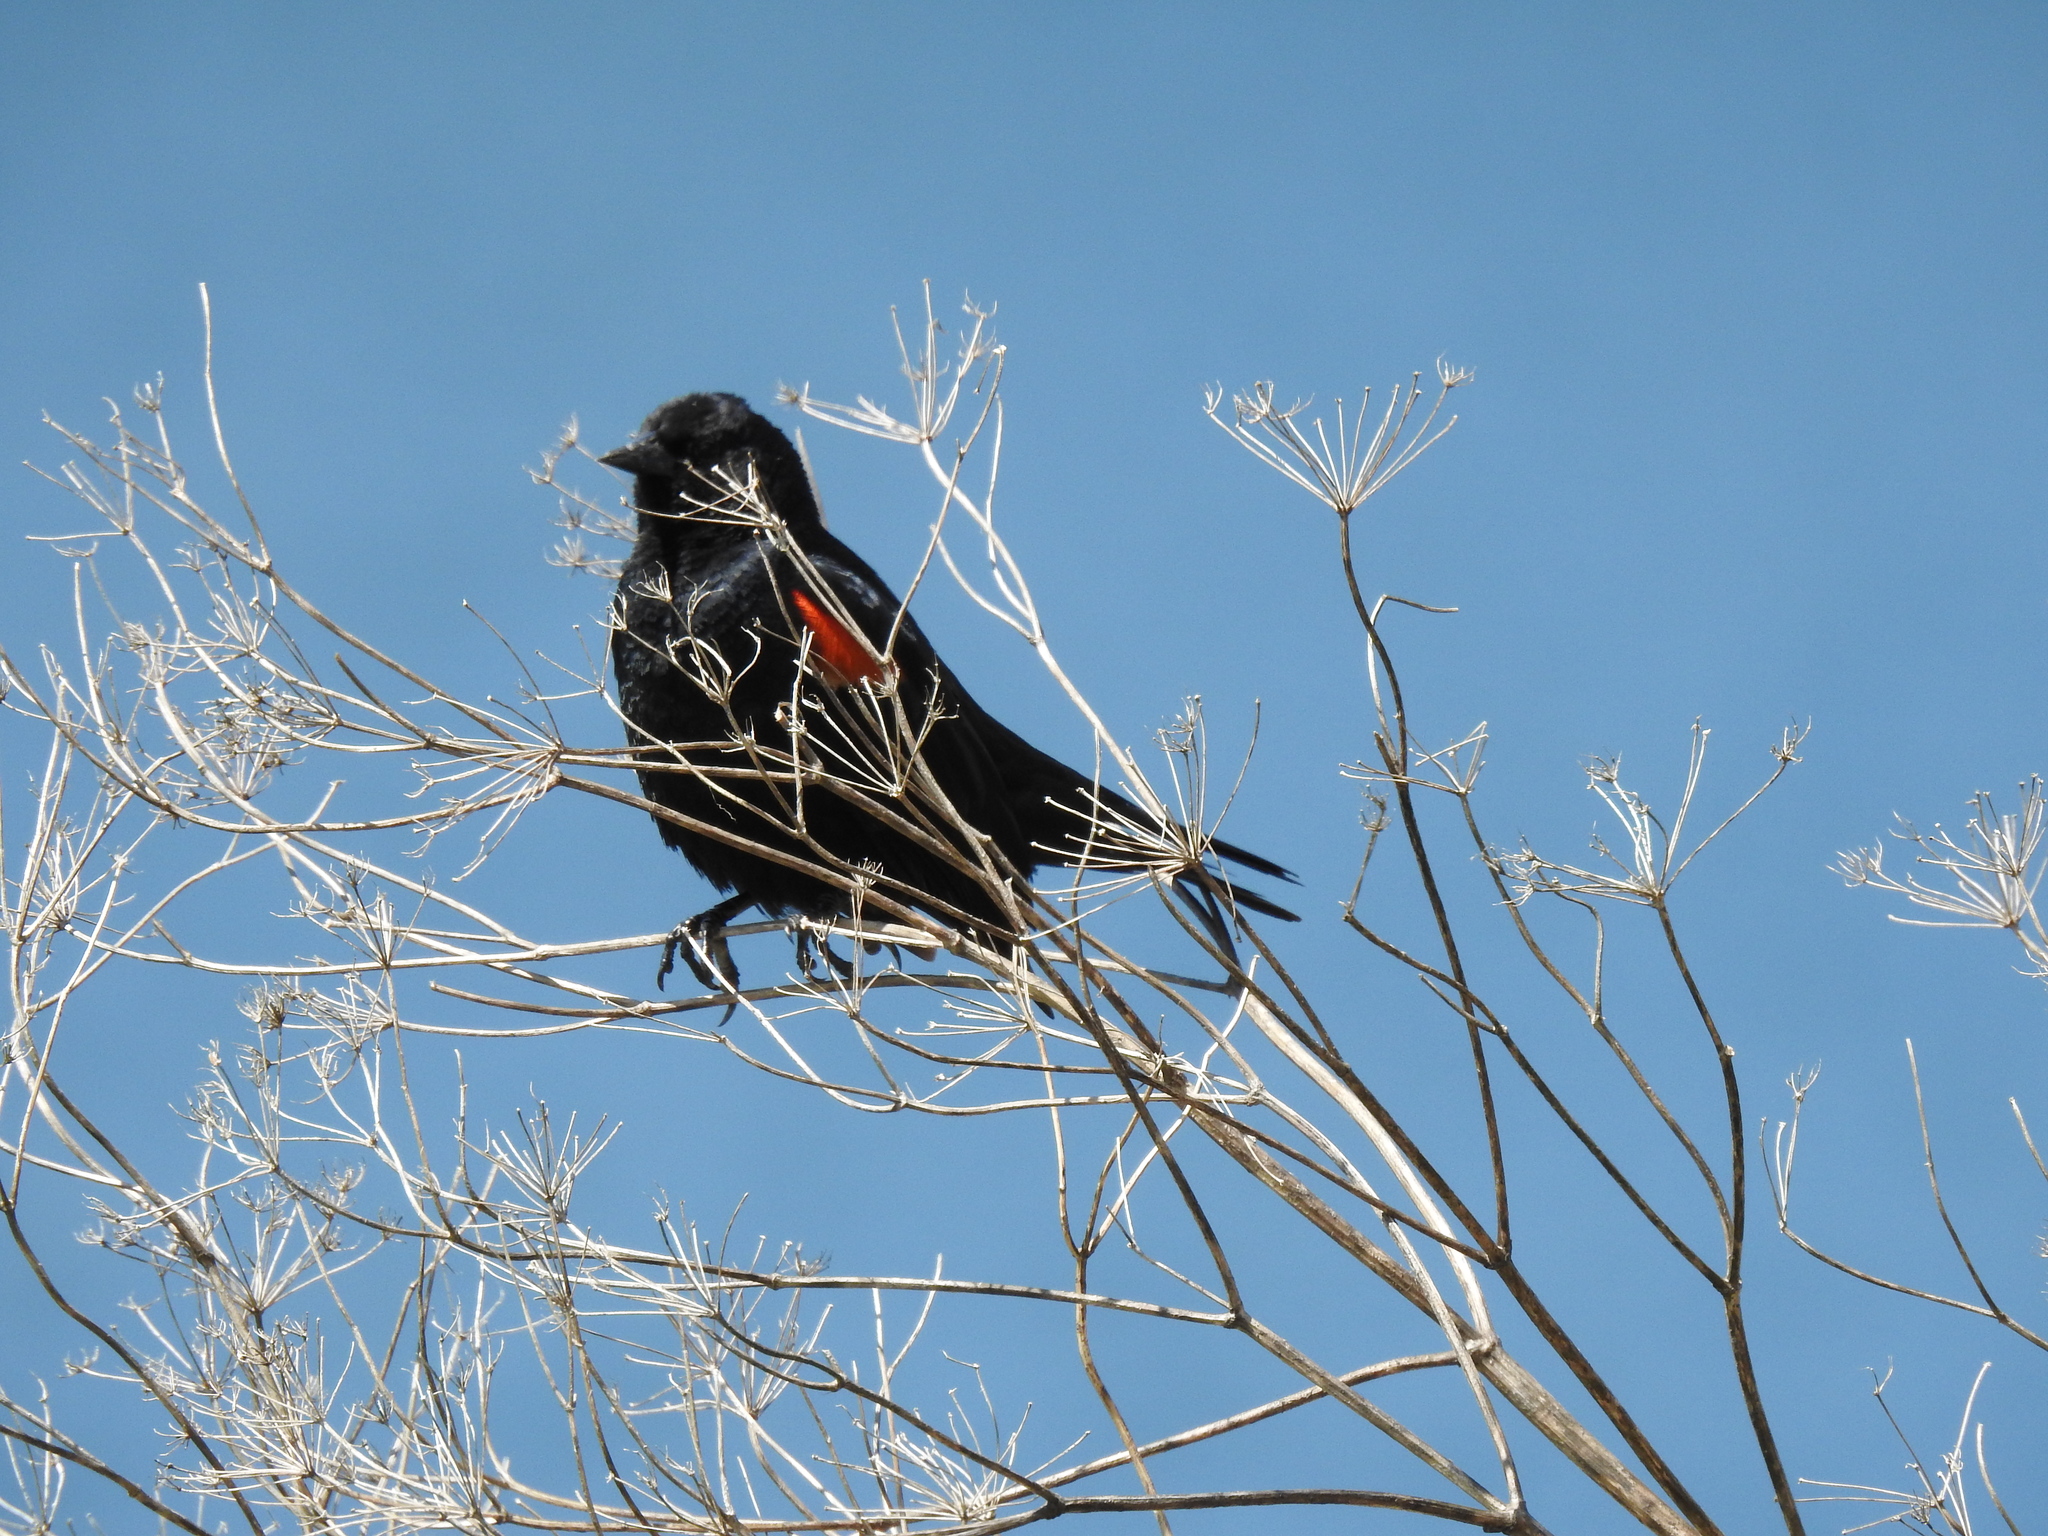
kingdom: Animalia
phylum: Chordata
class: Aves
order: Passeriformes
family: Icteridae
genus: Agelaius
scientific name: Agelaius phoeniceus
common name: Red-winged blackbird
